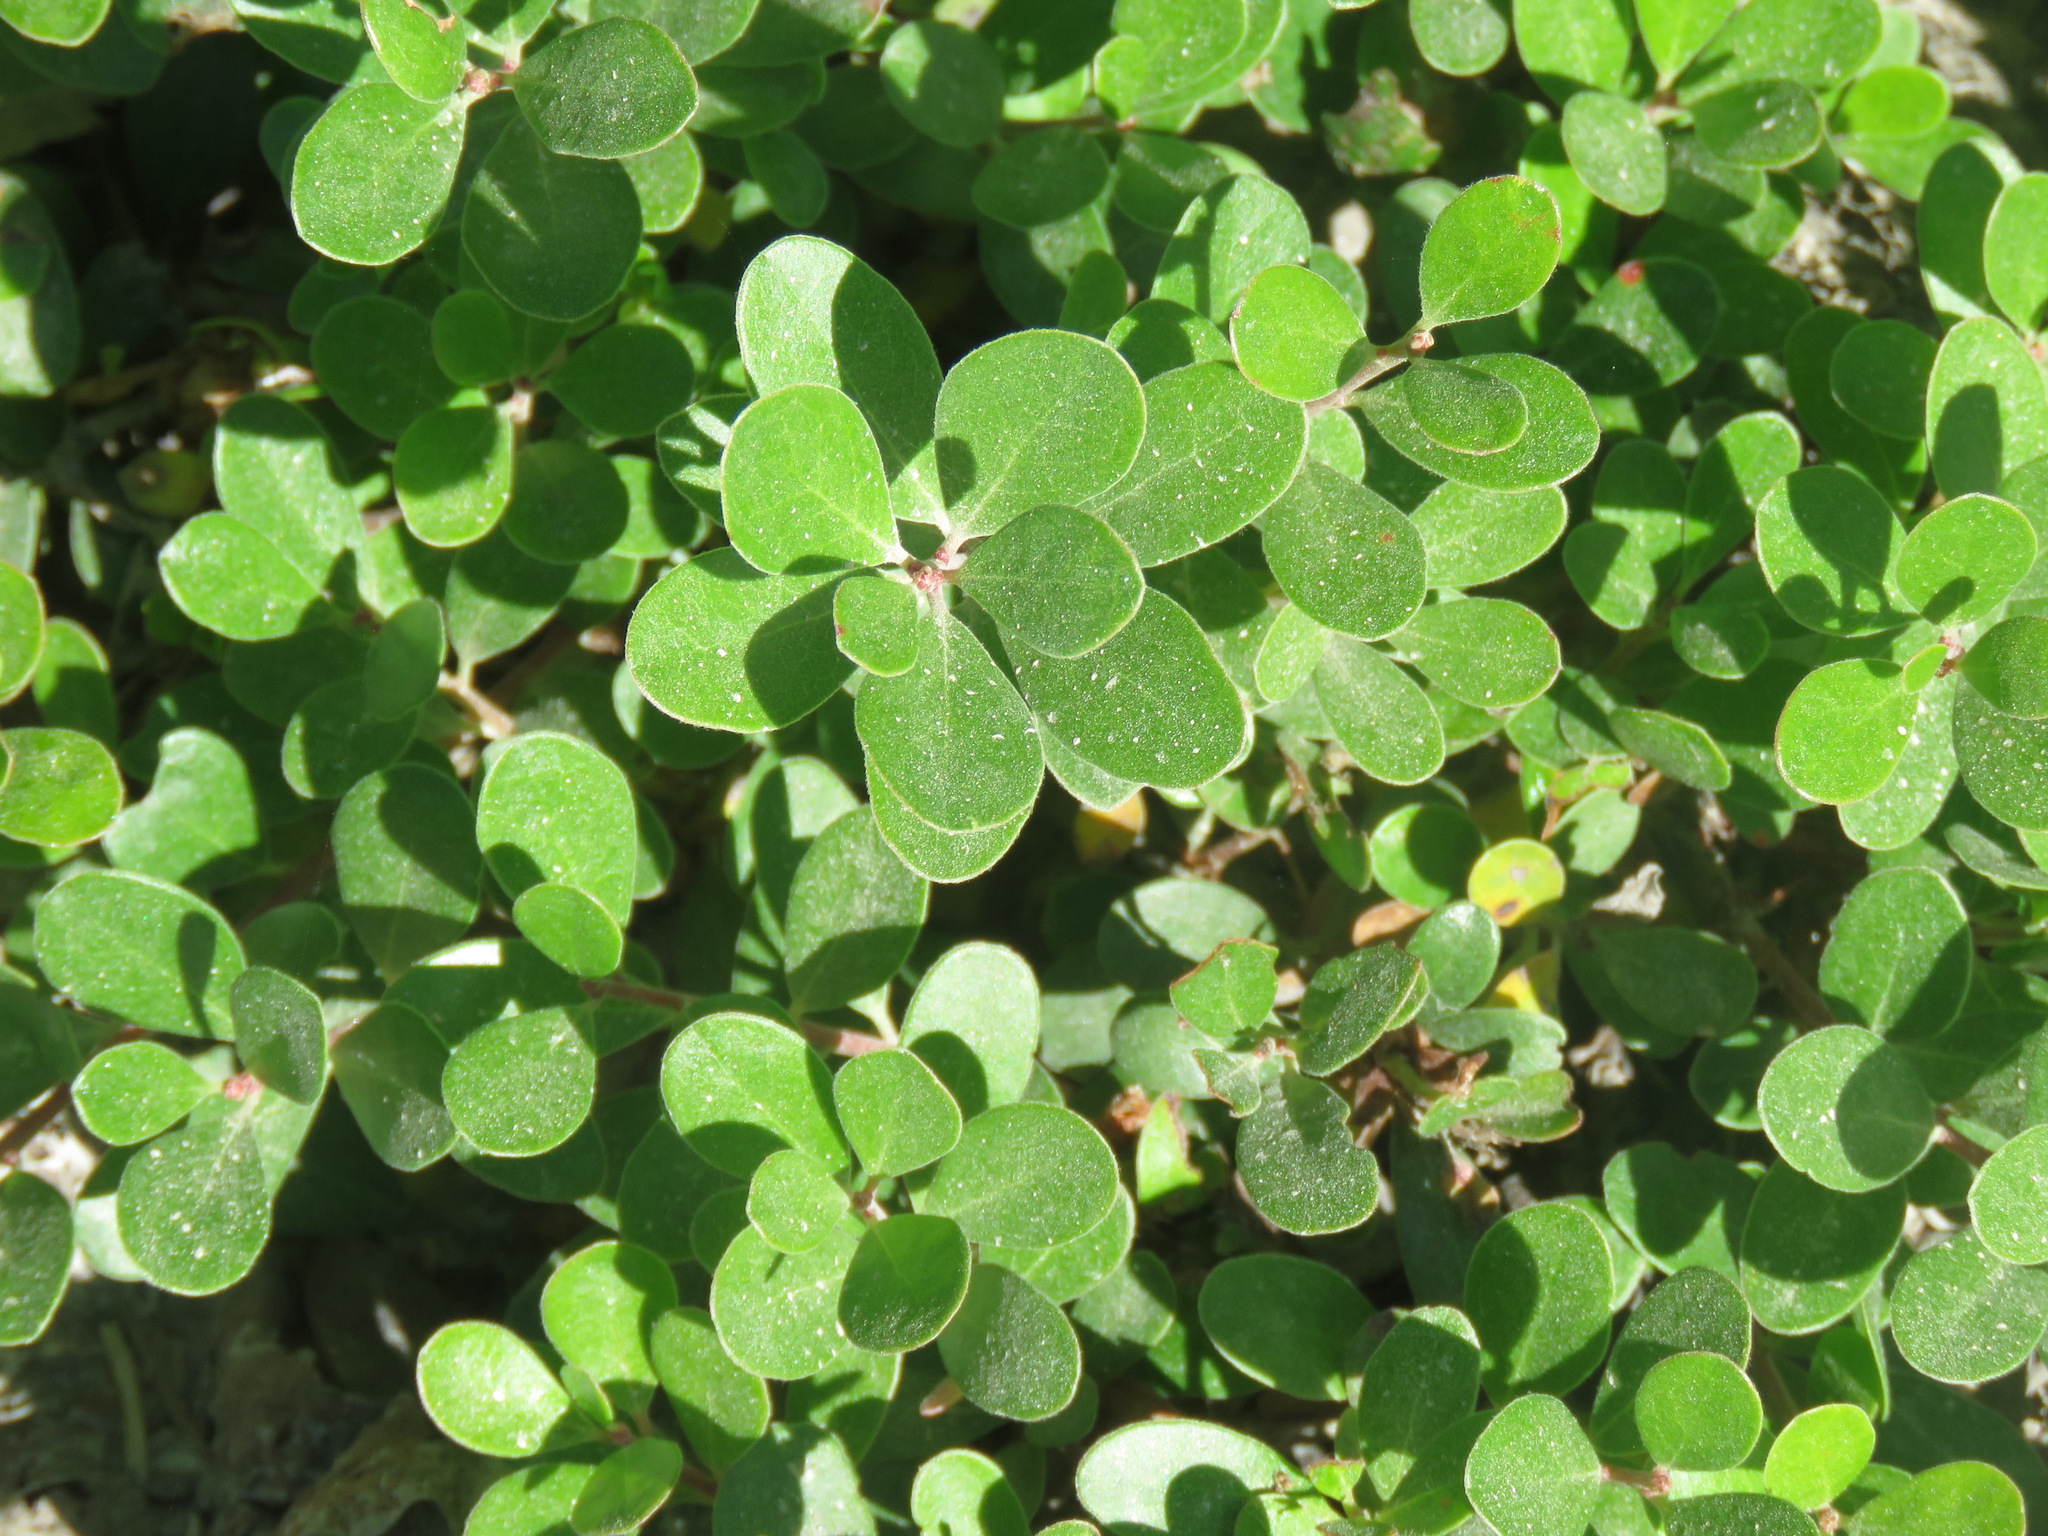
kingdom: Plantae
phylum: Tracheophyta
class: Magnoliopsida
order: Ericales
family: Ericaceae
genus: Arctostaphylos
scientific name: Arctostaphylos uva-ursi
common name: Bearberry
